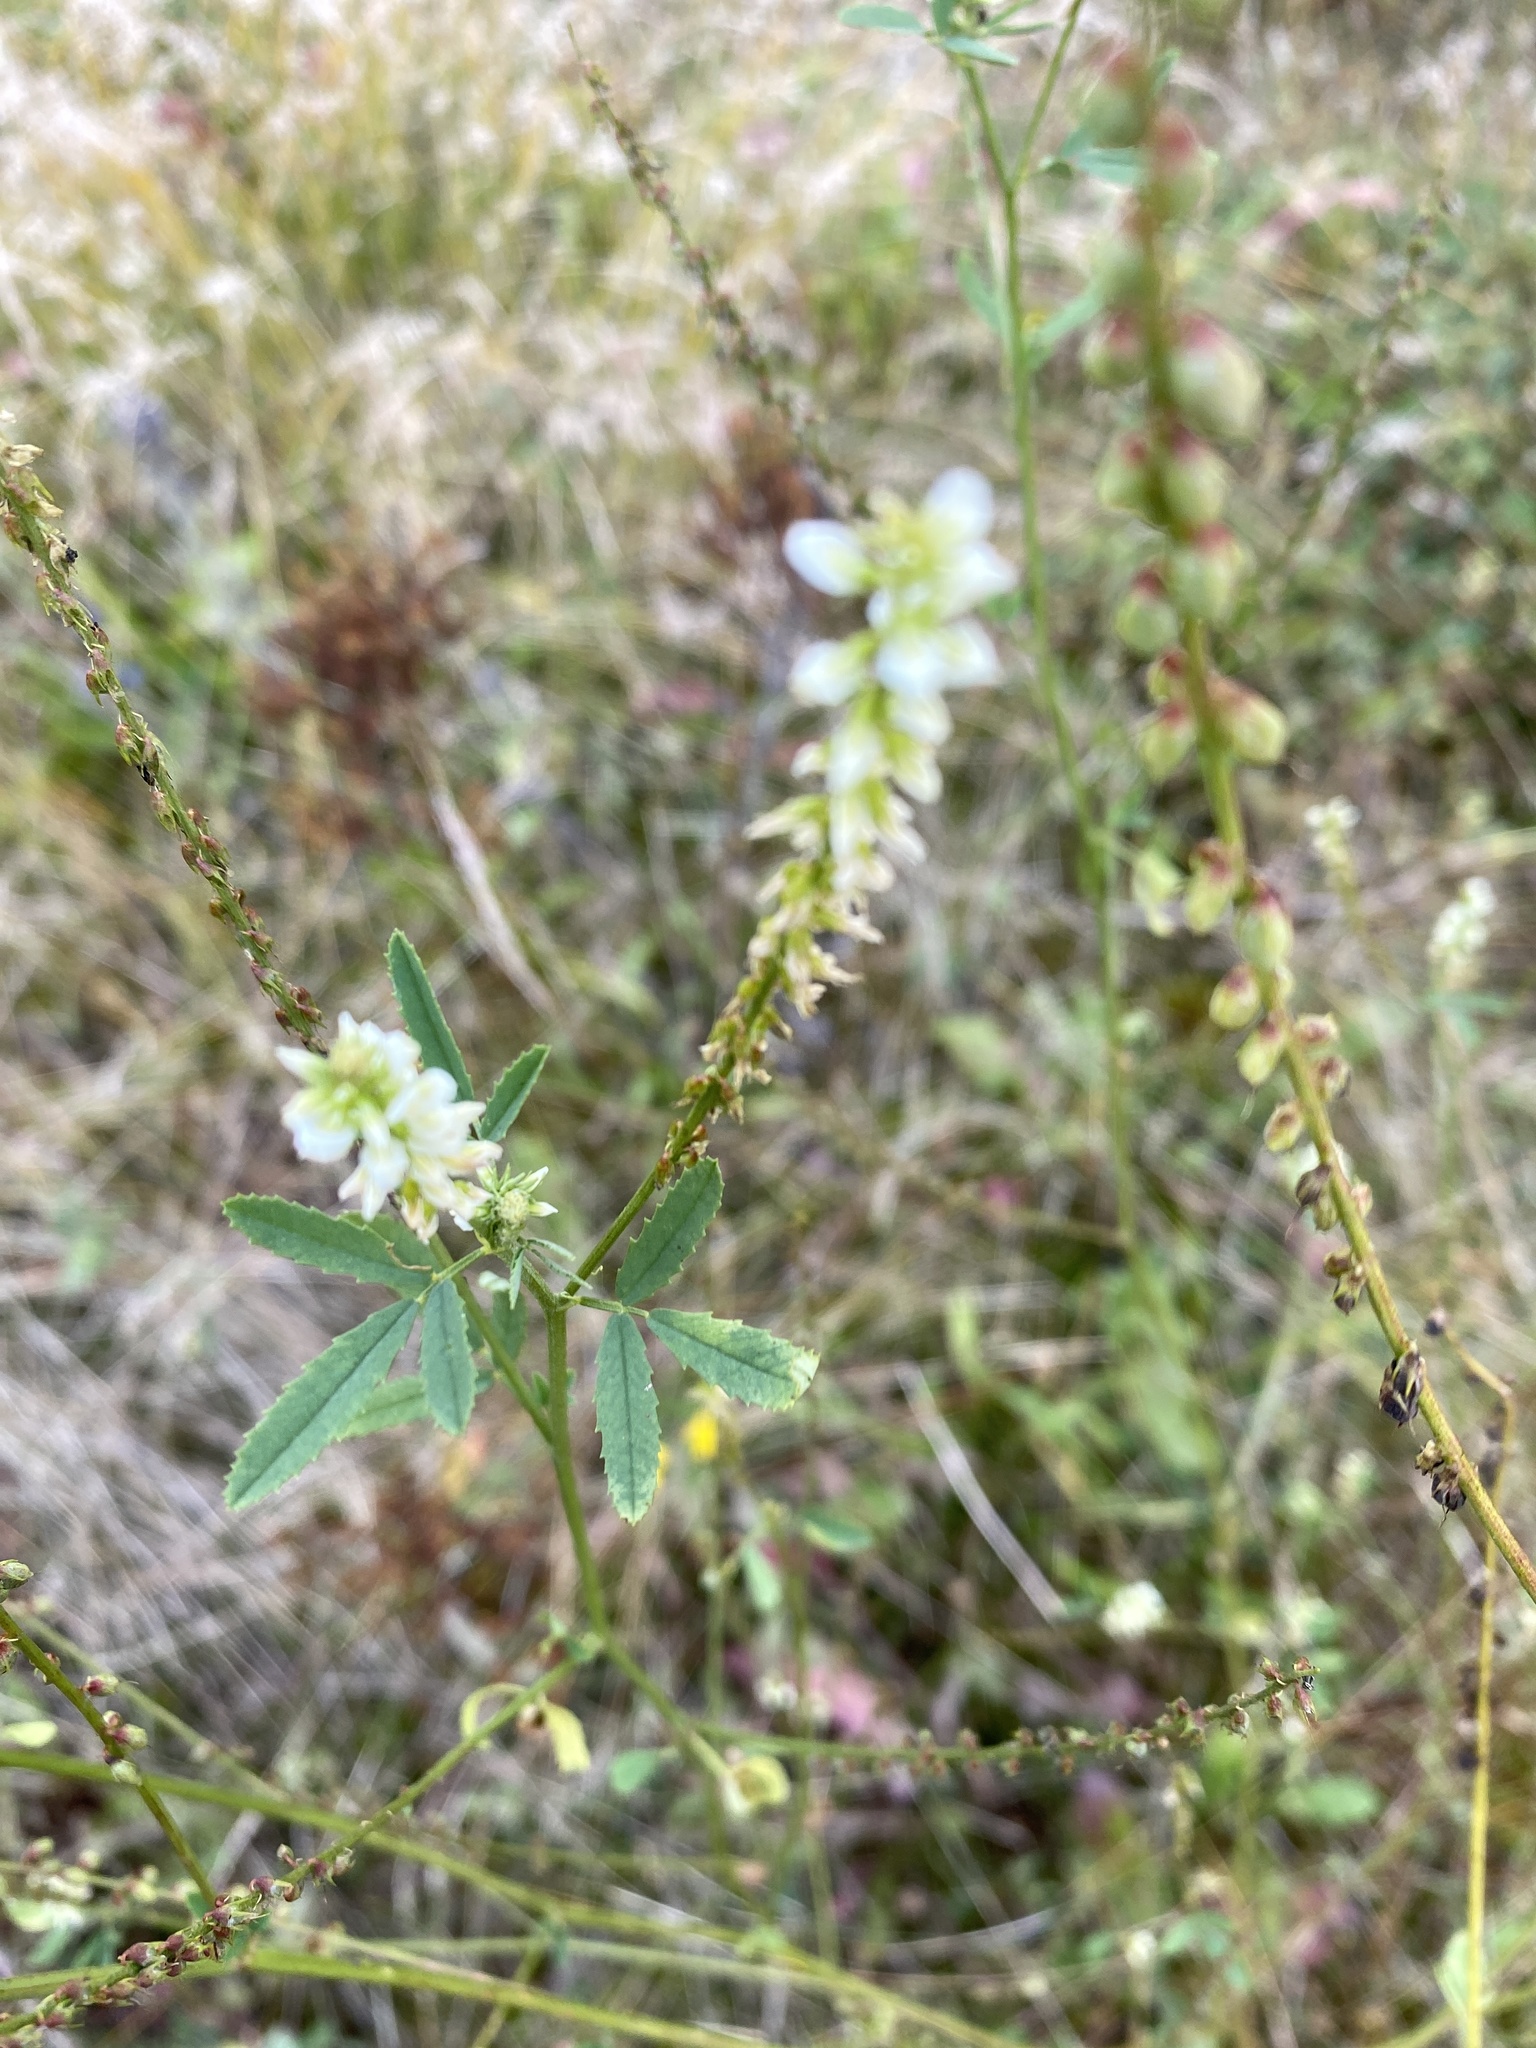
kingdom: Plantae
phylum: Tracheophyta
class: Magnoliopsida
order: Fabales
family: Fabaceae
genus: Melilotus
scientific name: Melilotus albus
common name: White melilot
